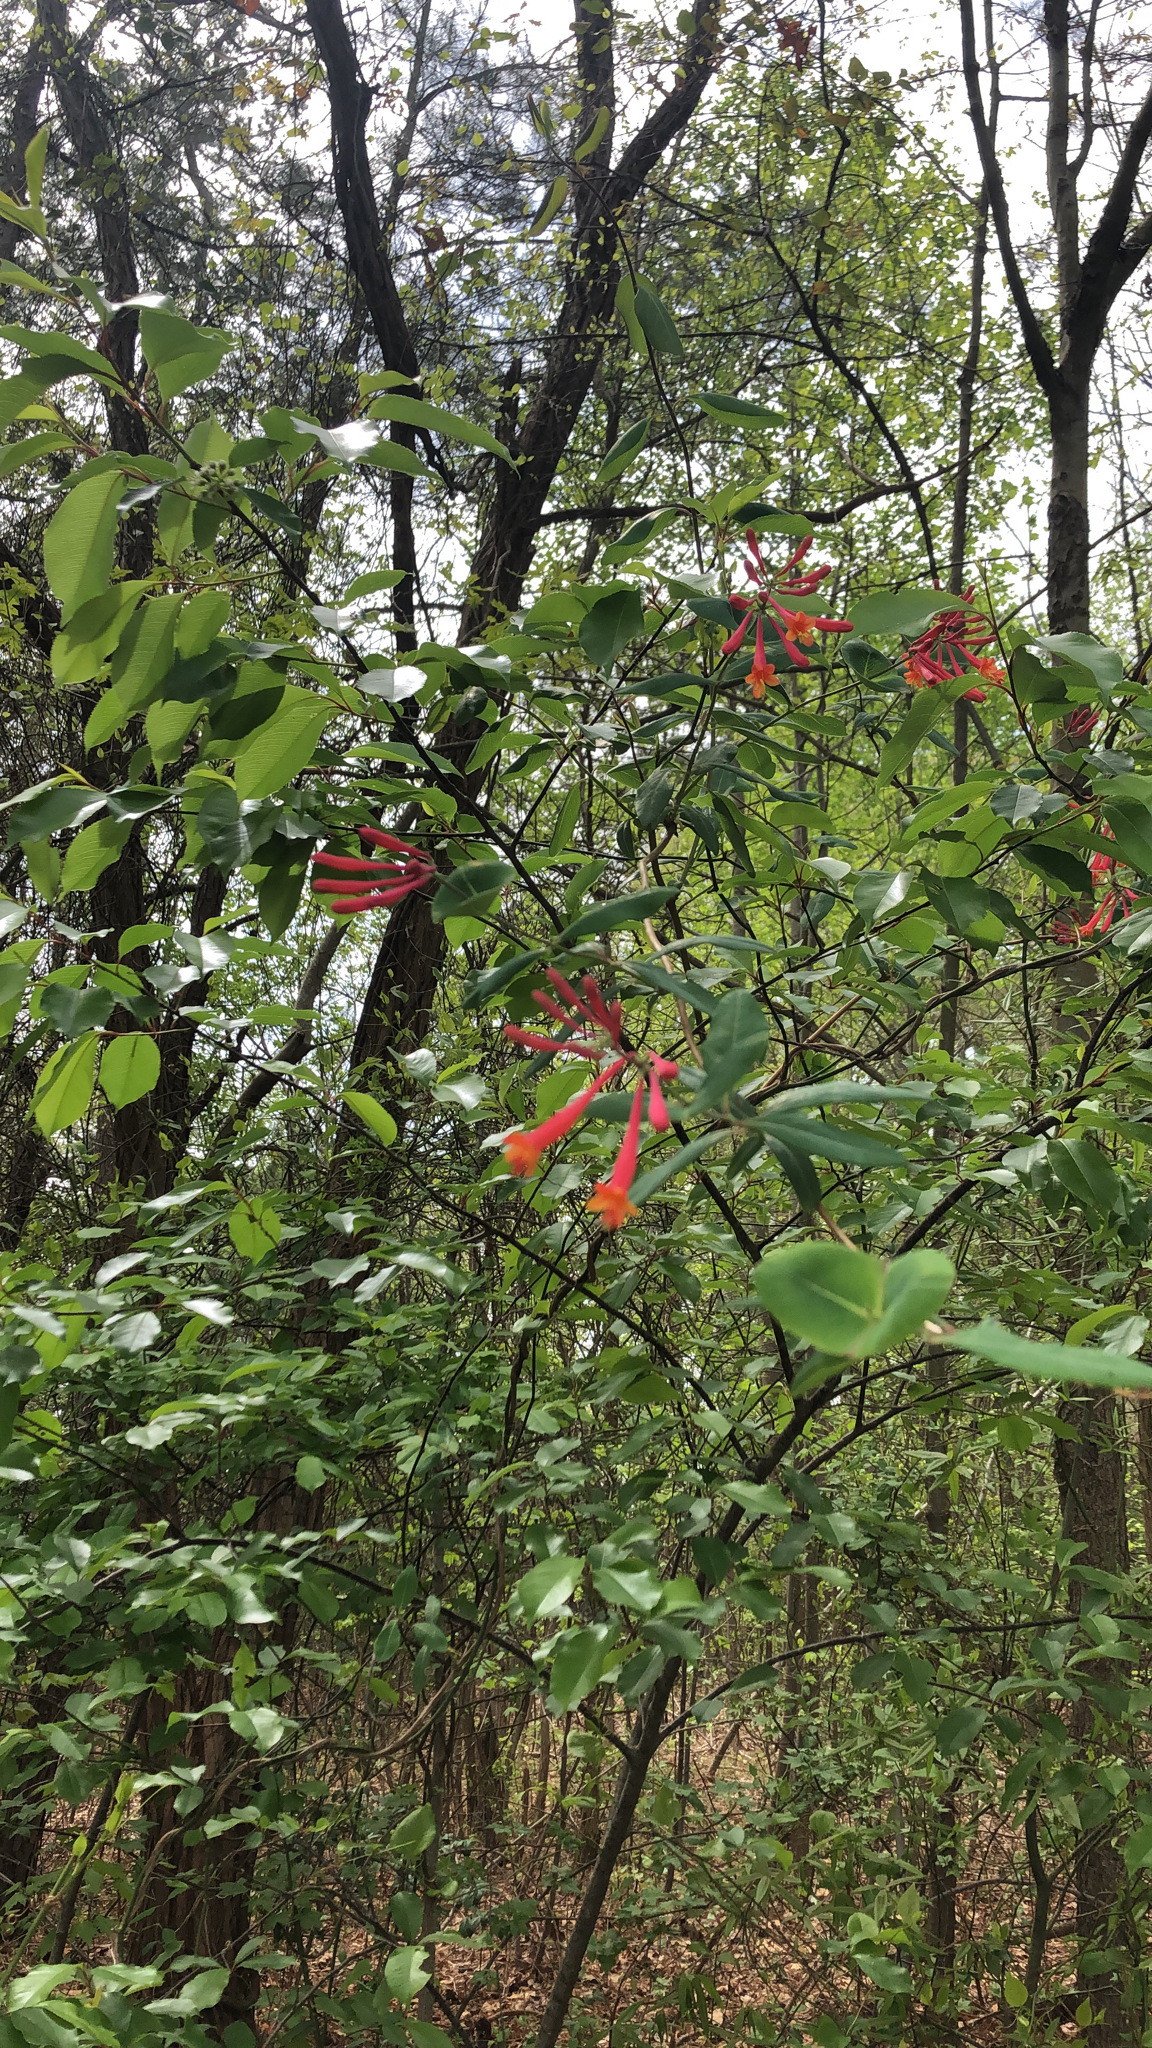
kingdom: Plantae
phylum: Tracheophyta
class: Magnoliopsida
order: Dipsacales
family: Caprifoliaceae
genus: Lonicera
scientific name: Lonicera sempervirens
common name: Coral honeysuckle
